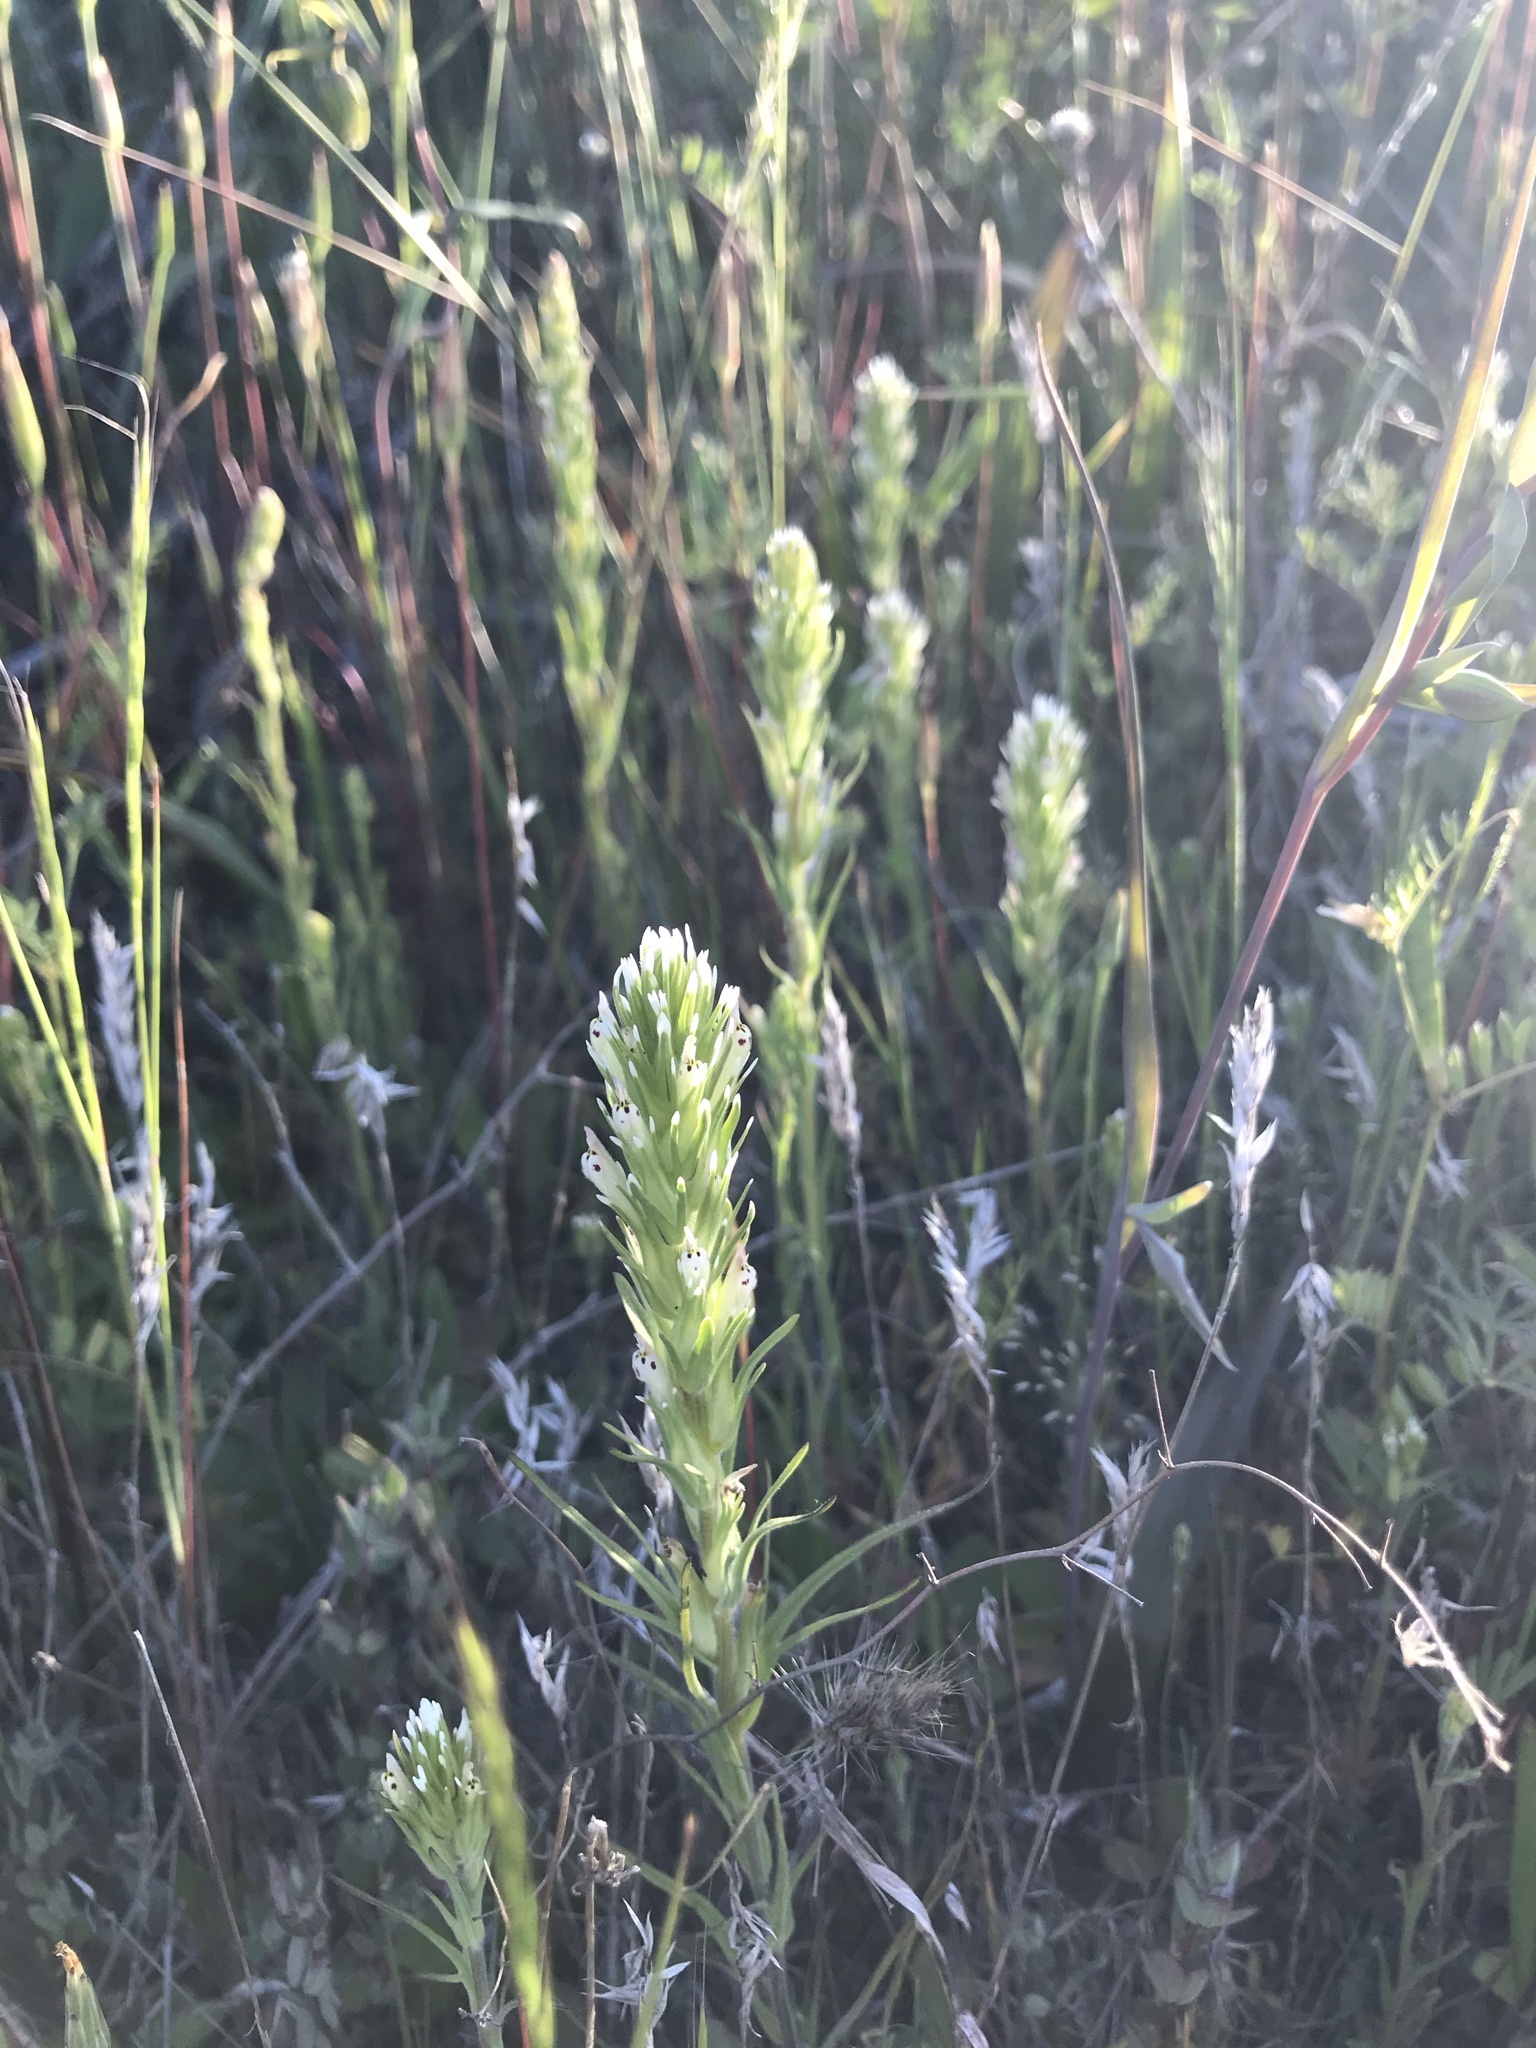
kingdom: Plantae
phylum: Tracheophyta
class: Magnoliopsida
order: Lamiales
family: Orobanchaceae
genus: Castilleja
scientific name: Castilleja attenuata
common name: Valley tassels
